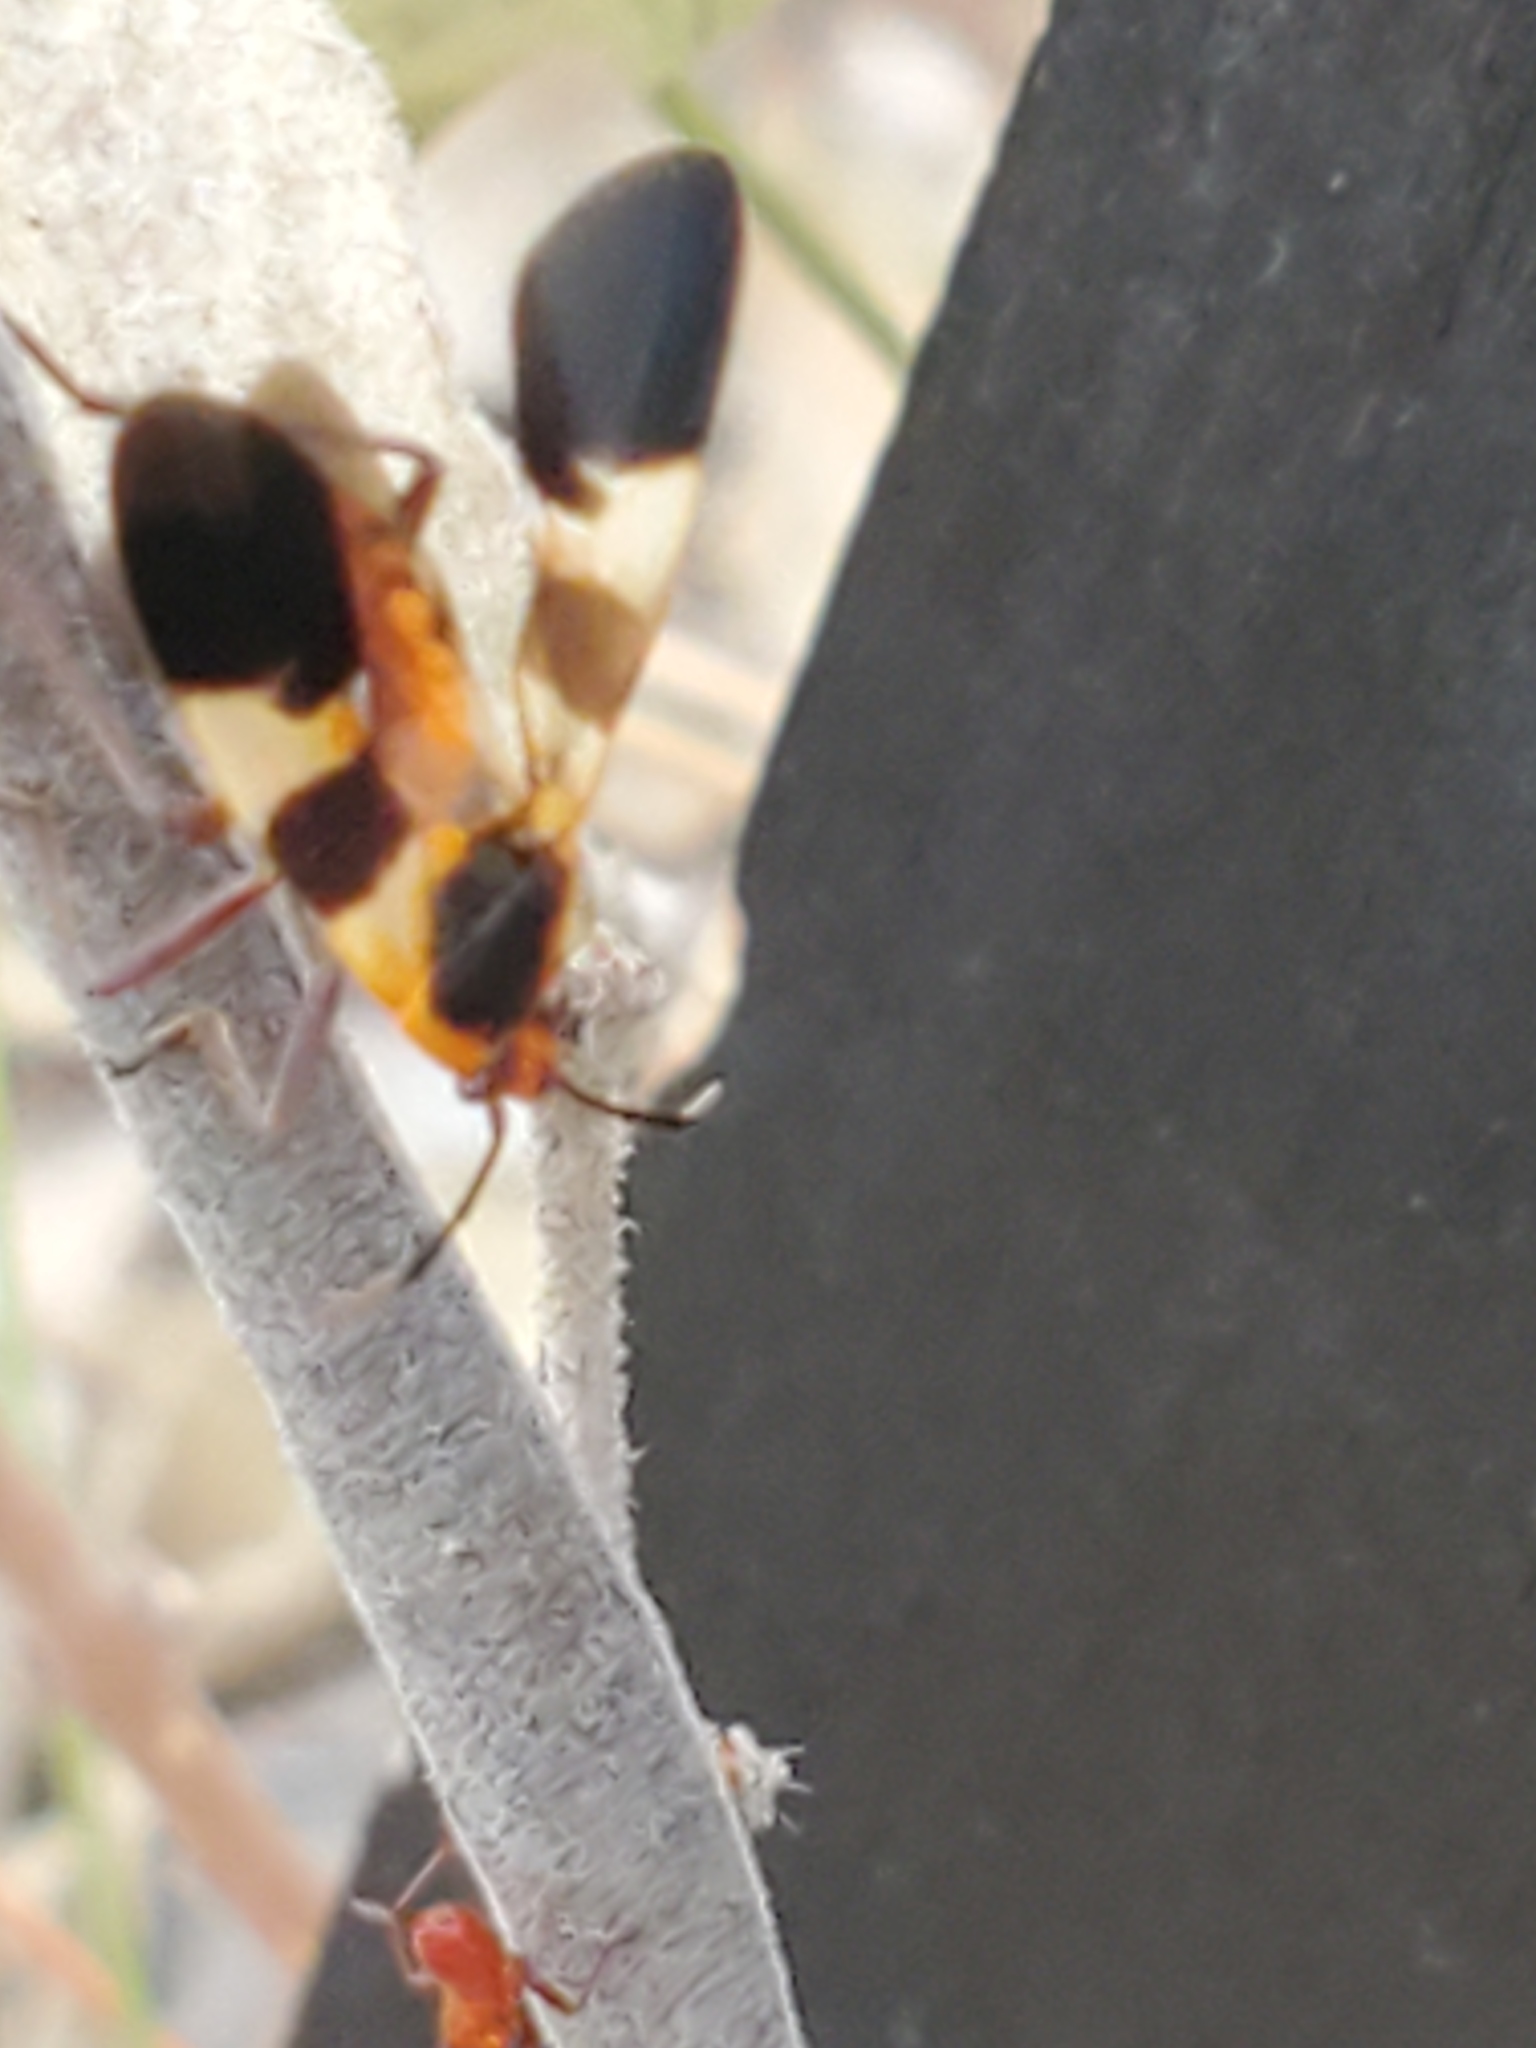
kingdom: Animalia
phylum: Arthropoda
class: Insecta
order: Hemiptera
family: Lygaeidae
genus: Oncopeltus
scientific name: Oncopeltus fasciatus
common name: Large milkweed bug
